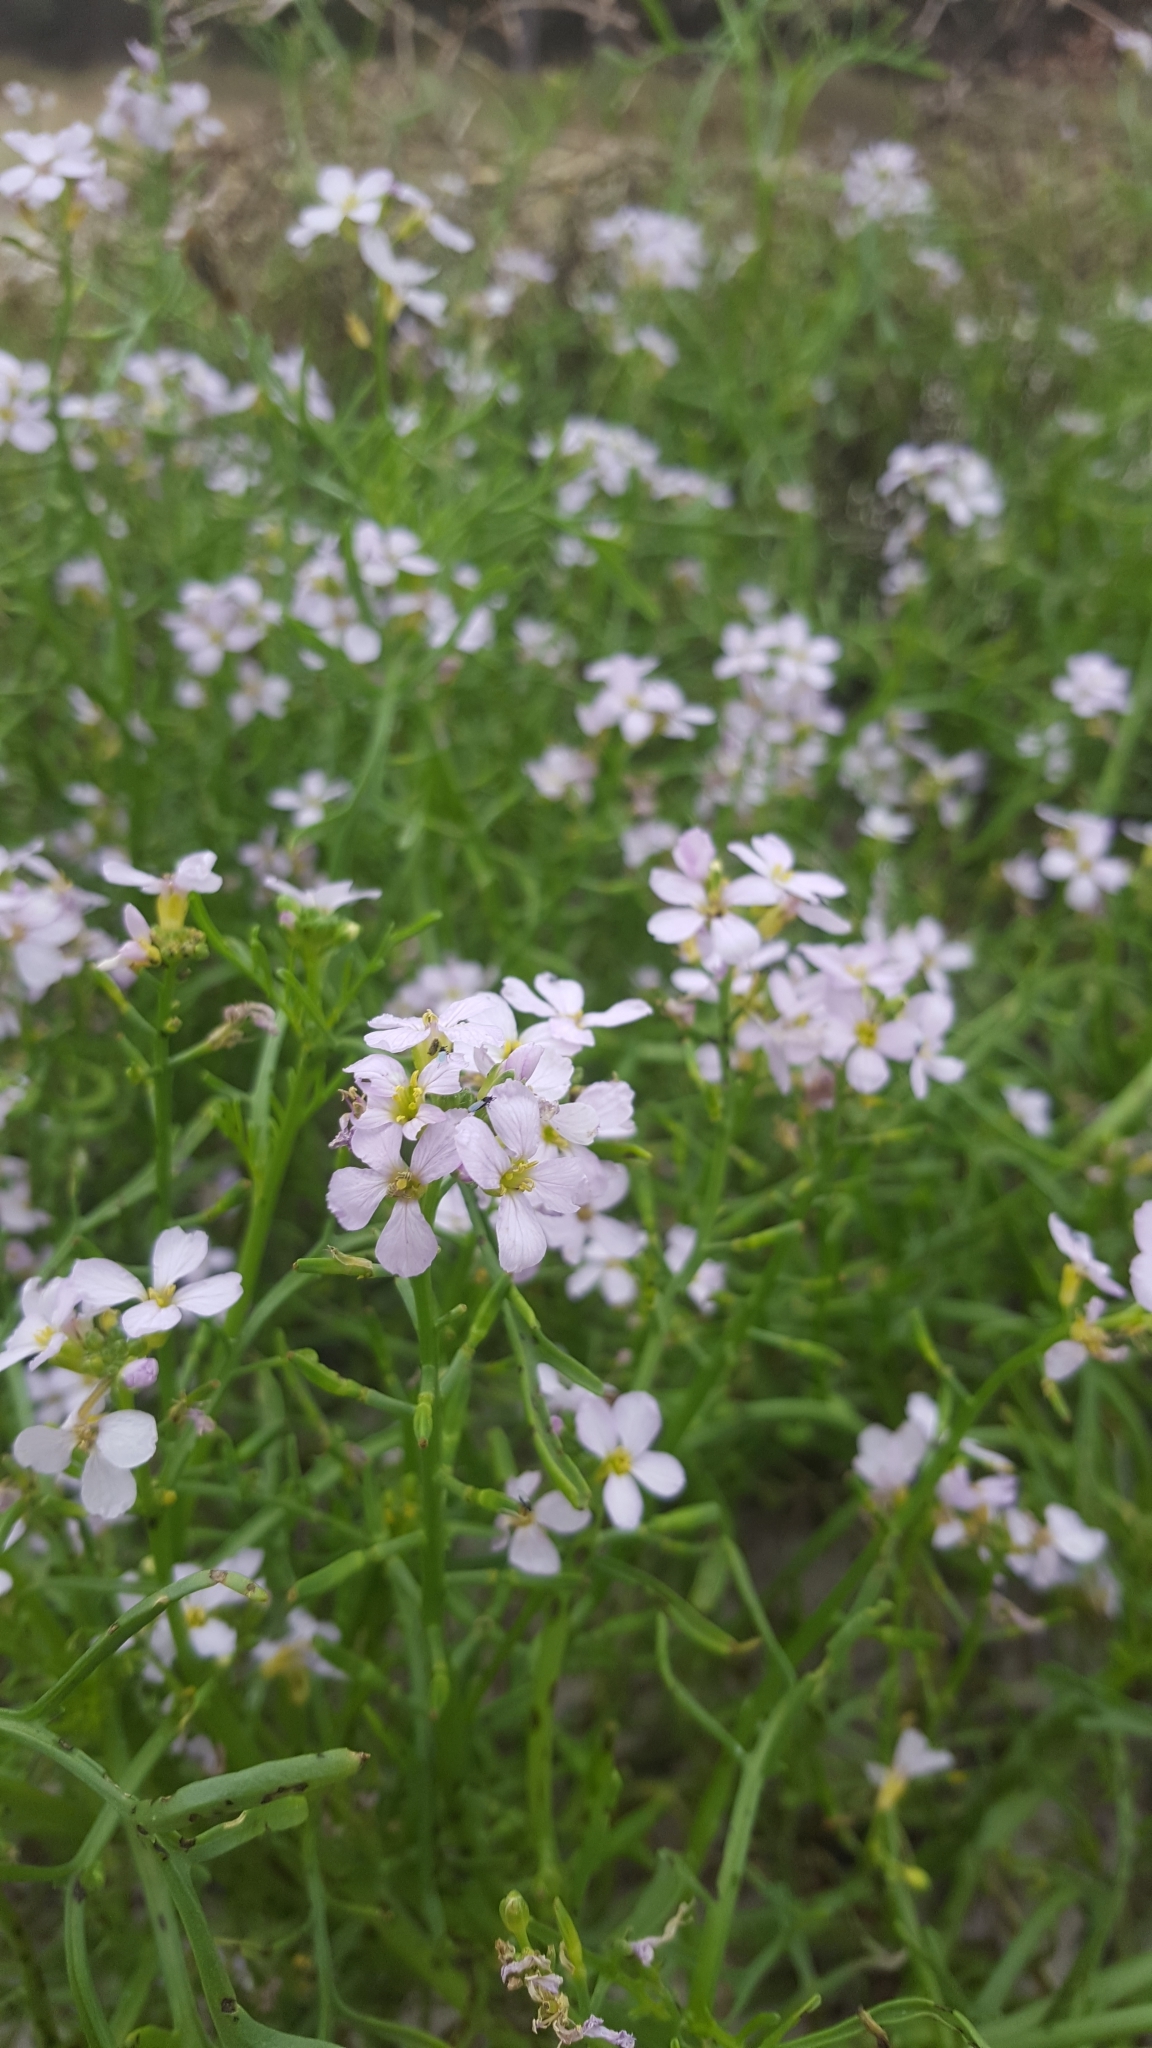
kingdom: Plantae
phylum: Tracheophyta
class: Magnoliopsida
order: Brassicales
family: Brassicaceae
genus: Cakile
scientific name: Cakile maritima
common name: Sea rocket
